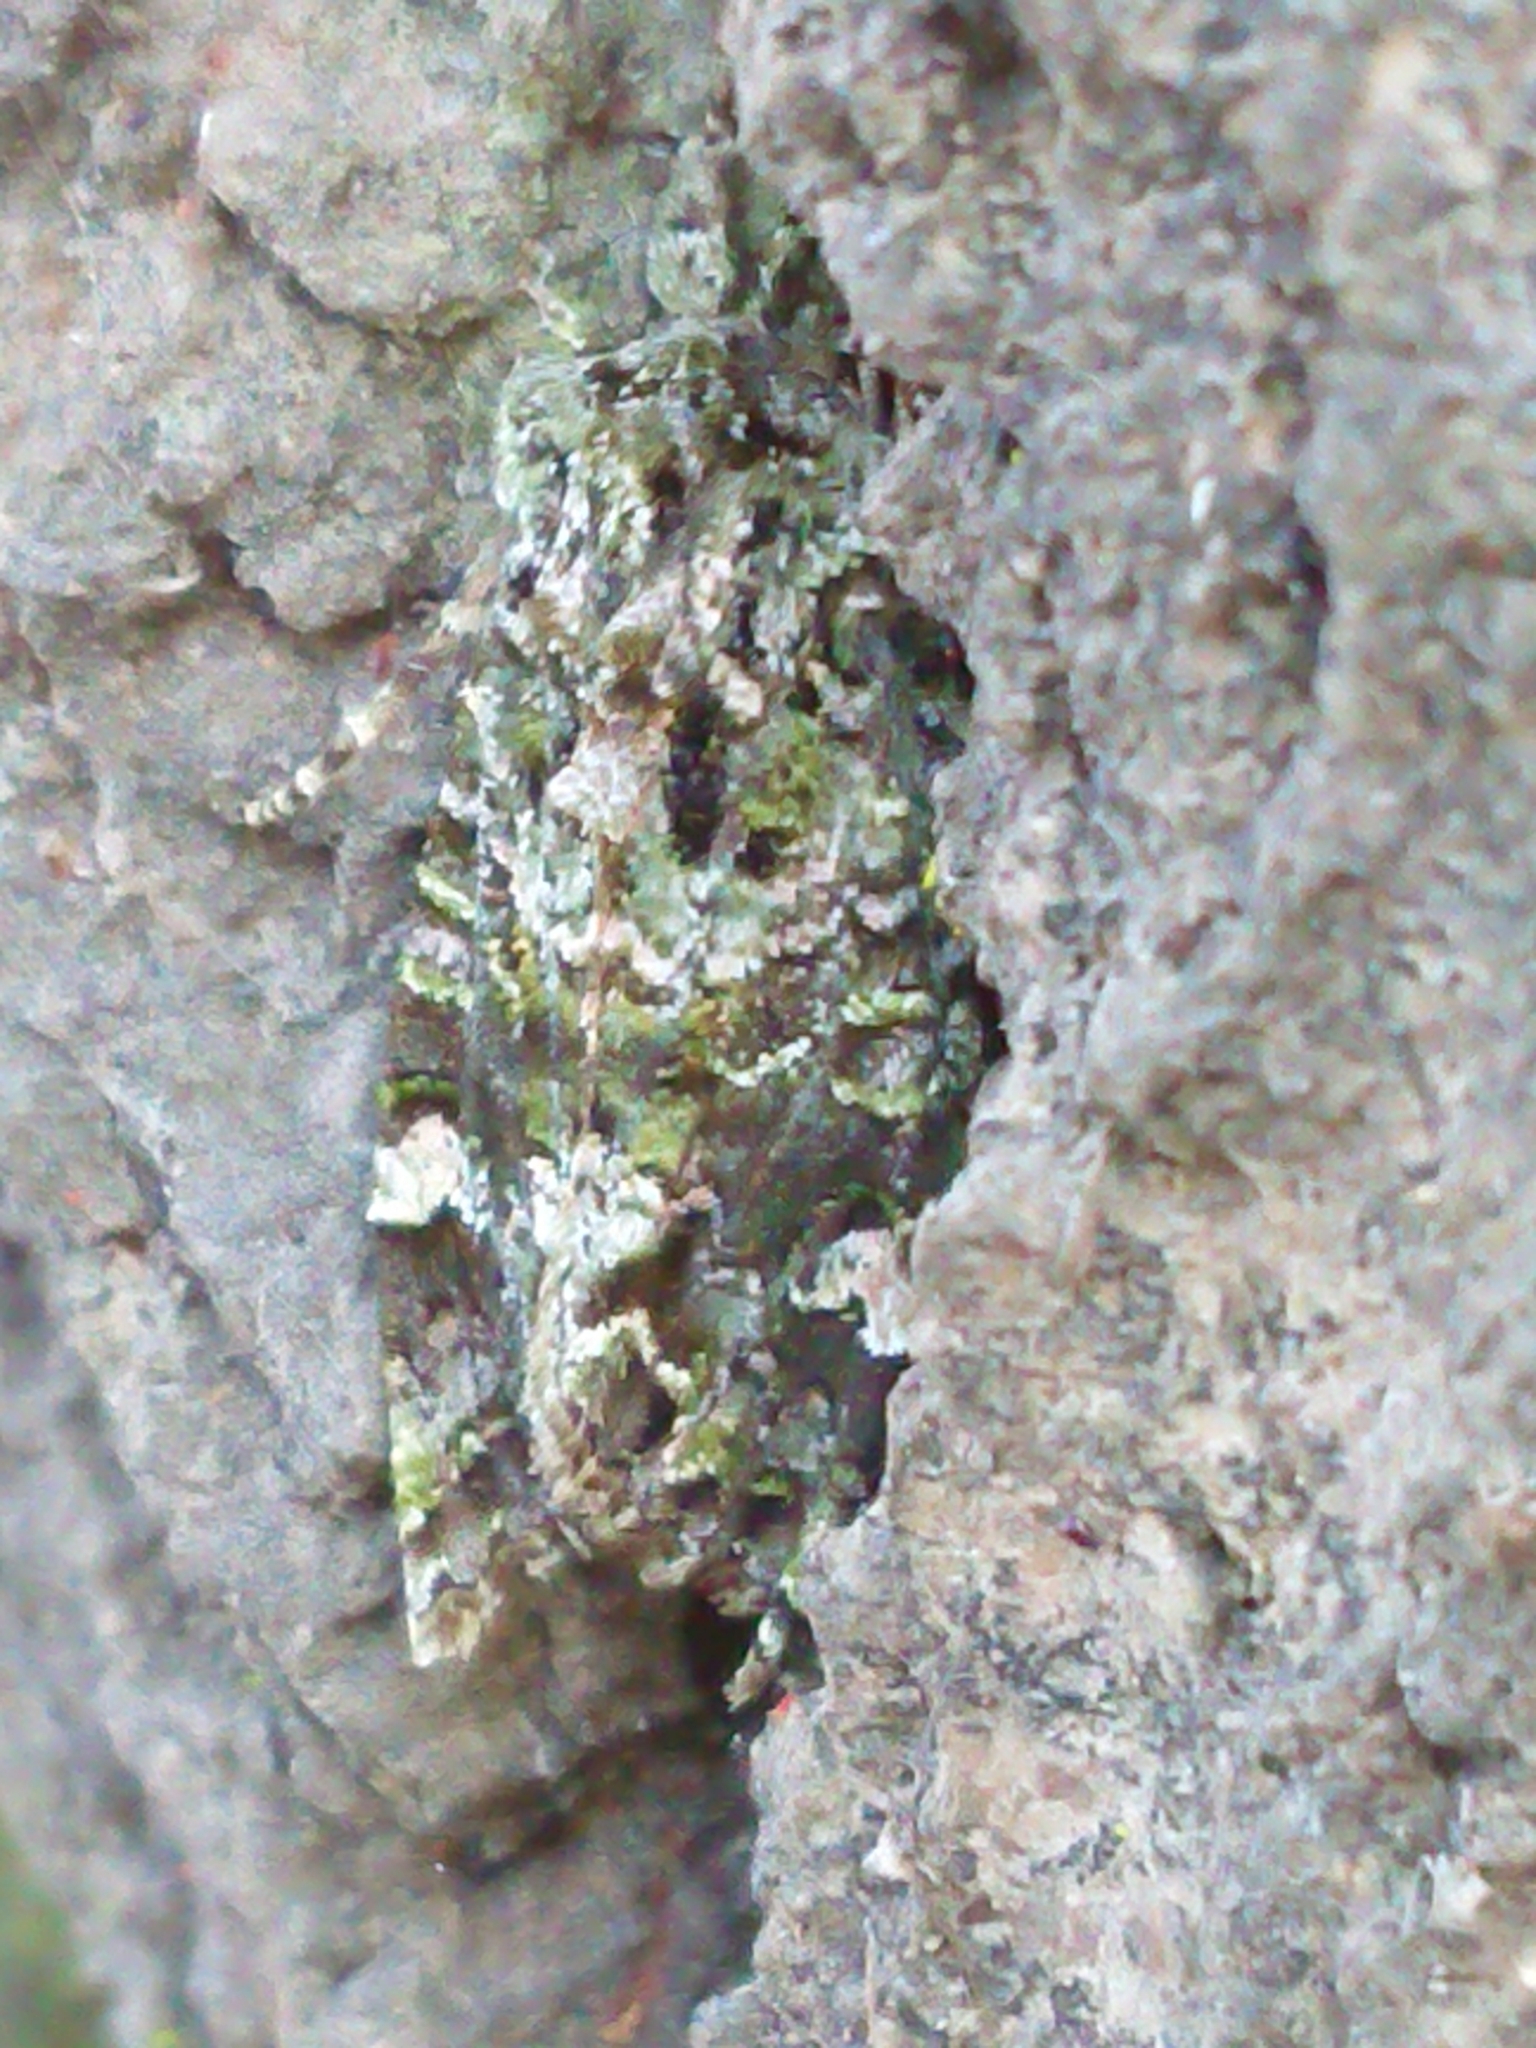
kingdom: Animalia
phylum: Arthropoda
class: Insecta
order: Lepidoptera
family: Noctuidae
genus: Ichneutica
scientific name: Ichneutica
